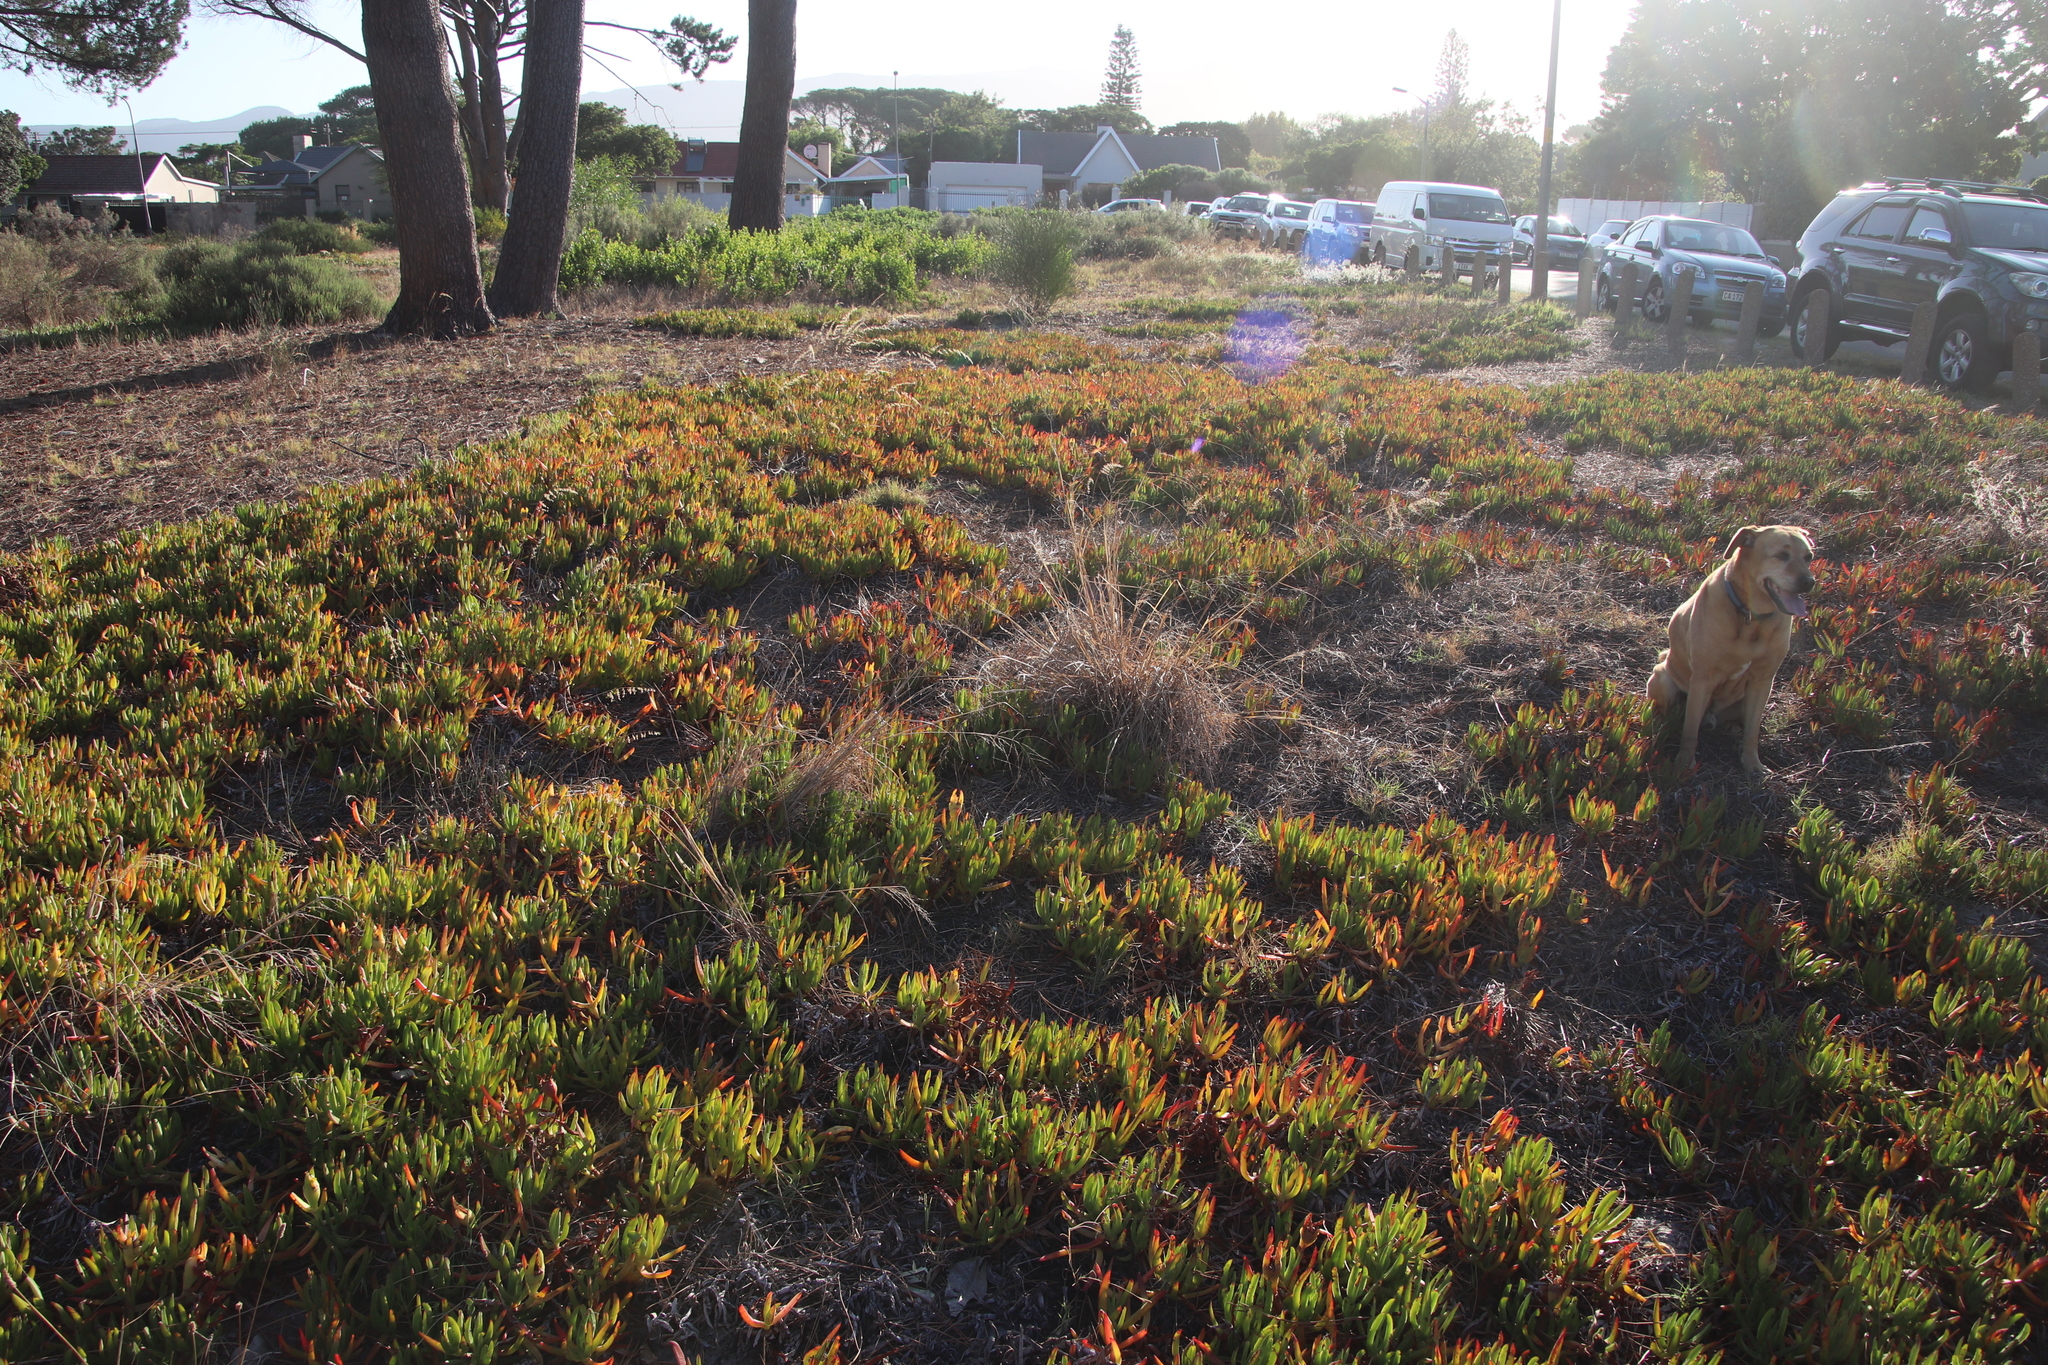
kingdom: Plantae
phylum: Tracheophyta
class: Magnoliopsida
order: Caryophyllales
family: Aizoaceae
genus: Carpobrotus
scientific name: Carpobrotus edulis
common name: Hottentot-fig
